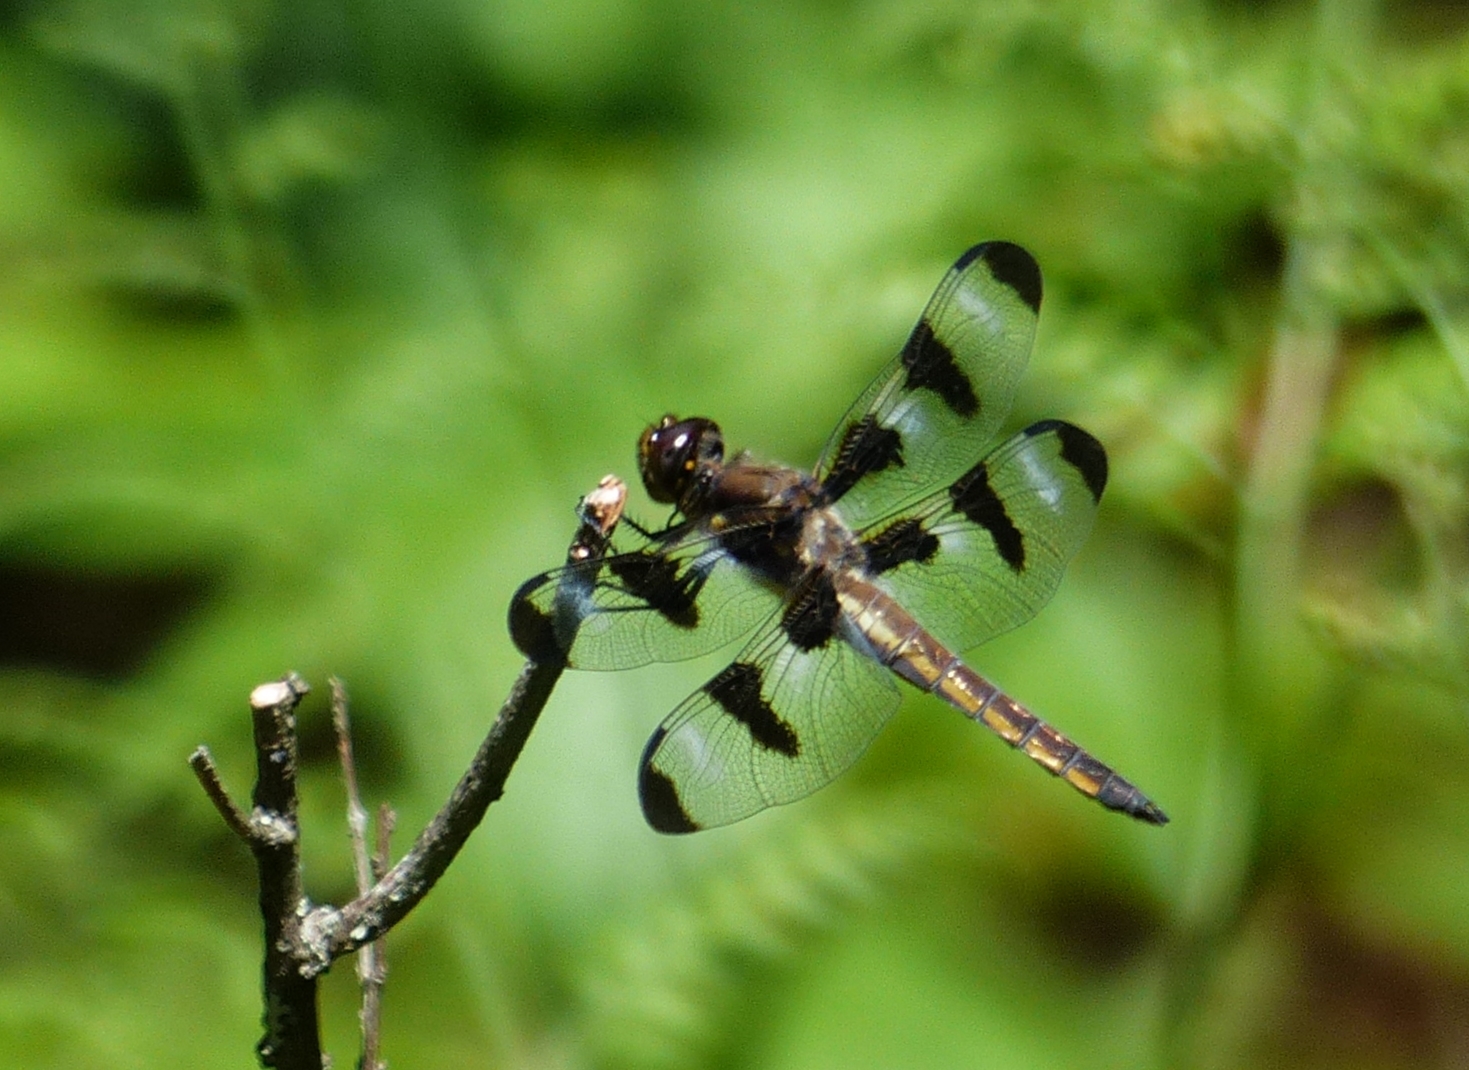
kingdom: Animalia
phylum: Arthropoda
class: Insecta
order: Odonata
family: Libellulidae
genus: Libellula
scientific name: Libellula pulchella
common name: Twelve-spotted skimmer
